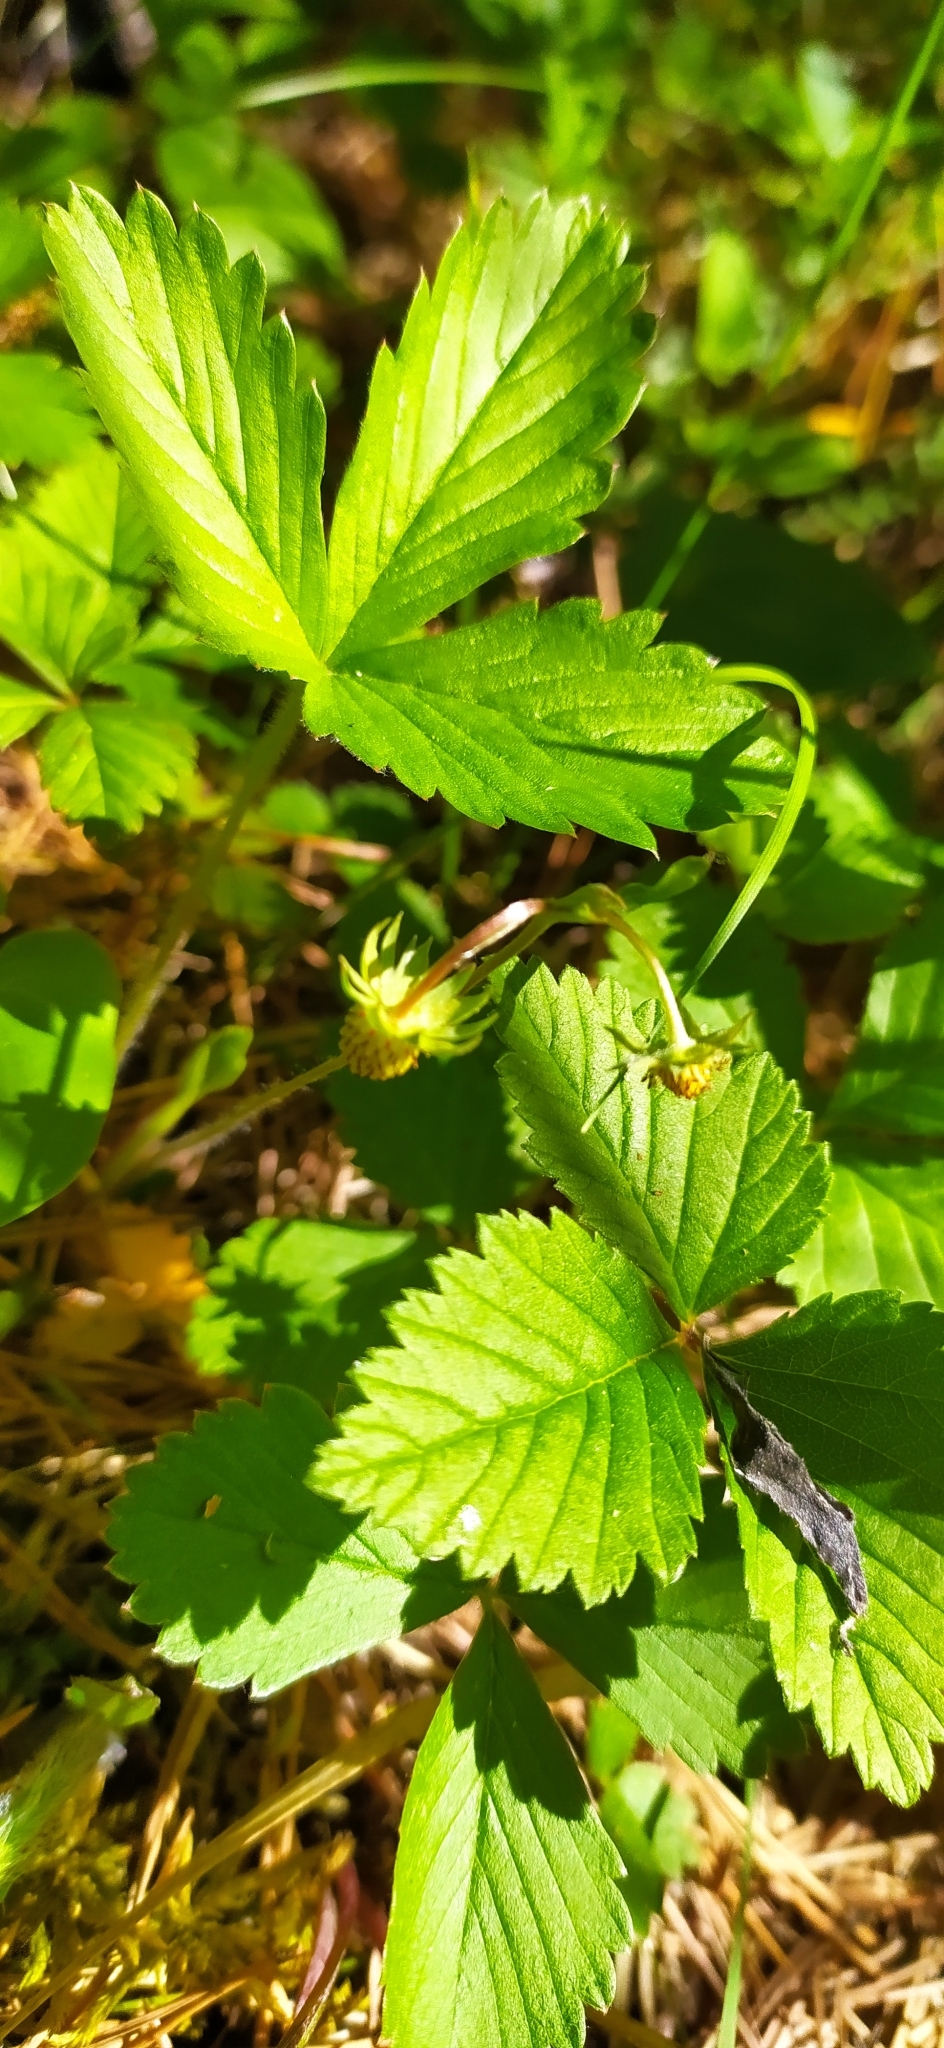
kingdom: Plantae
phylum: Tracheophyta
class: Magnoliopsida
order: Rosales
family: Rosaceae
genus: Fragaria
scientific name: Fragaria vesca
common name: Wild strawberry
